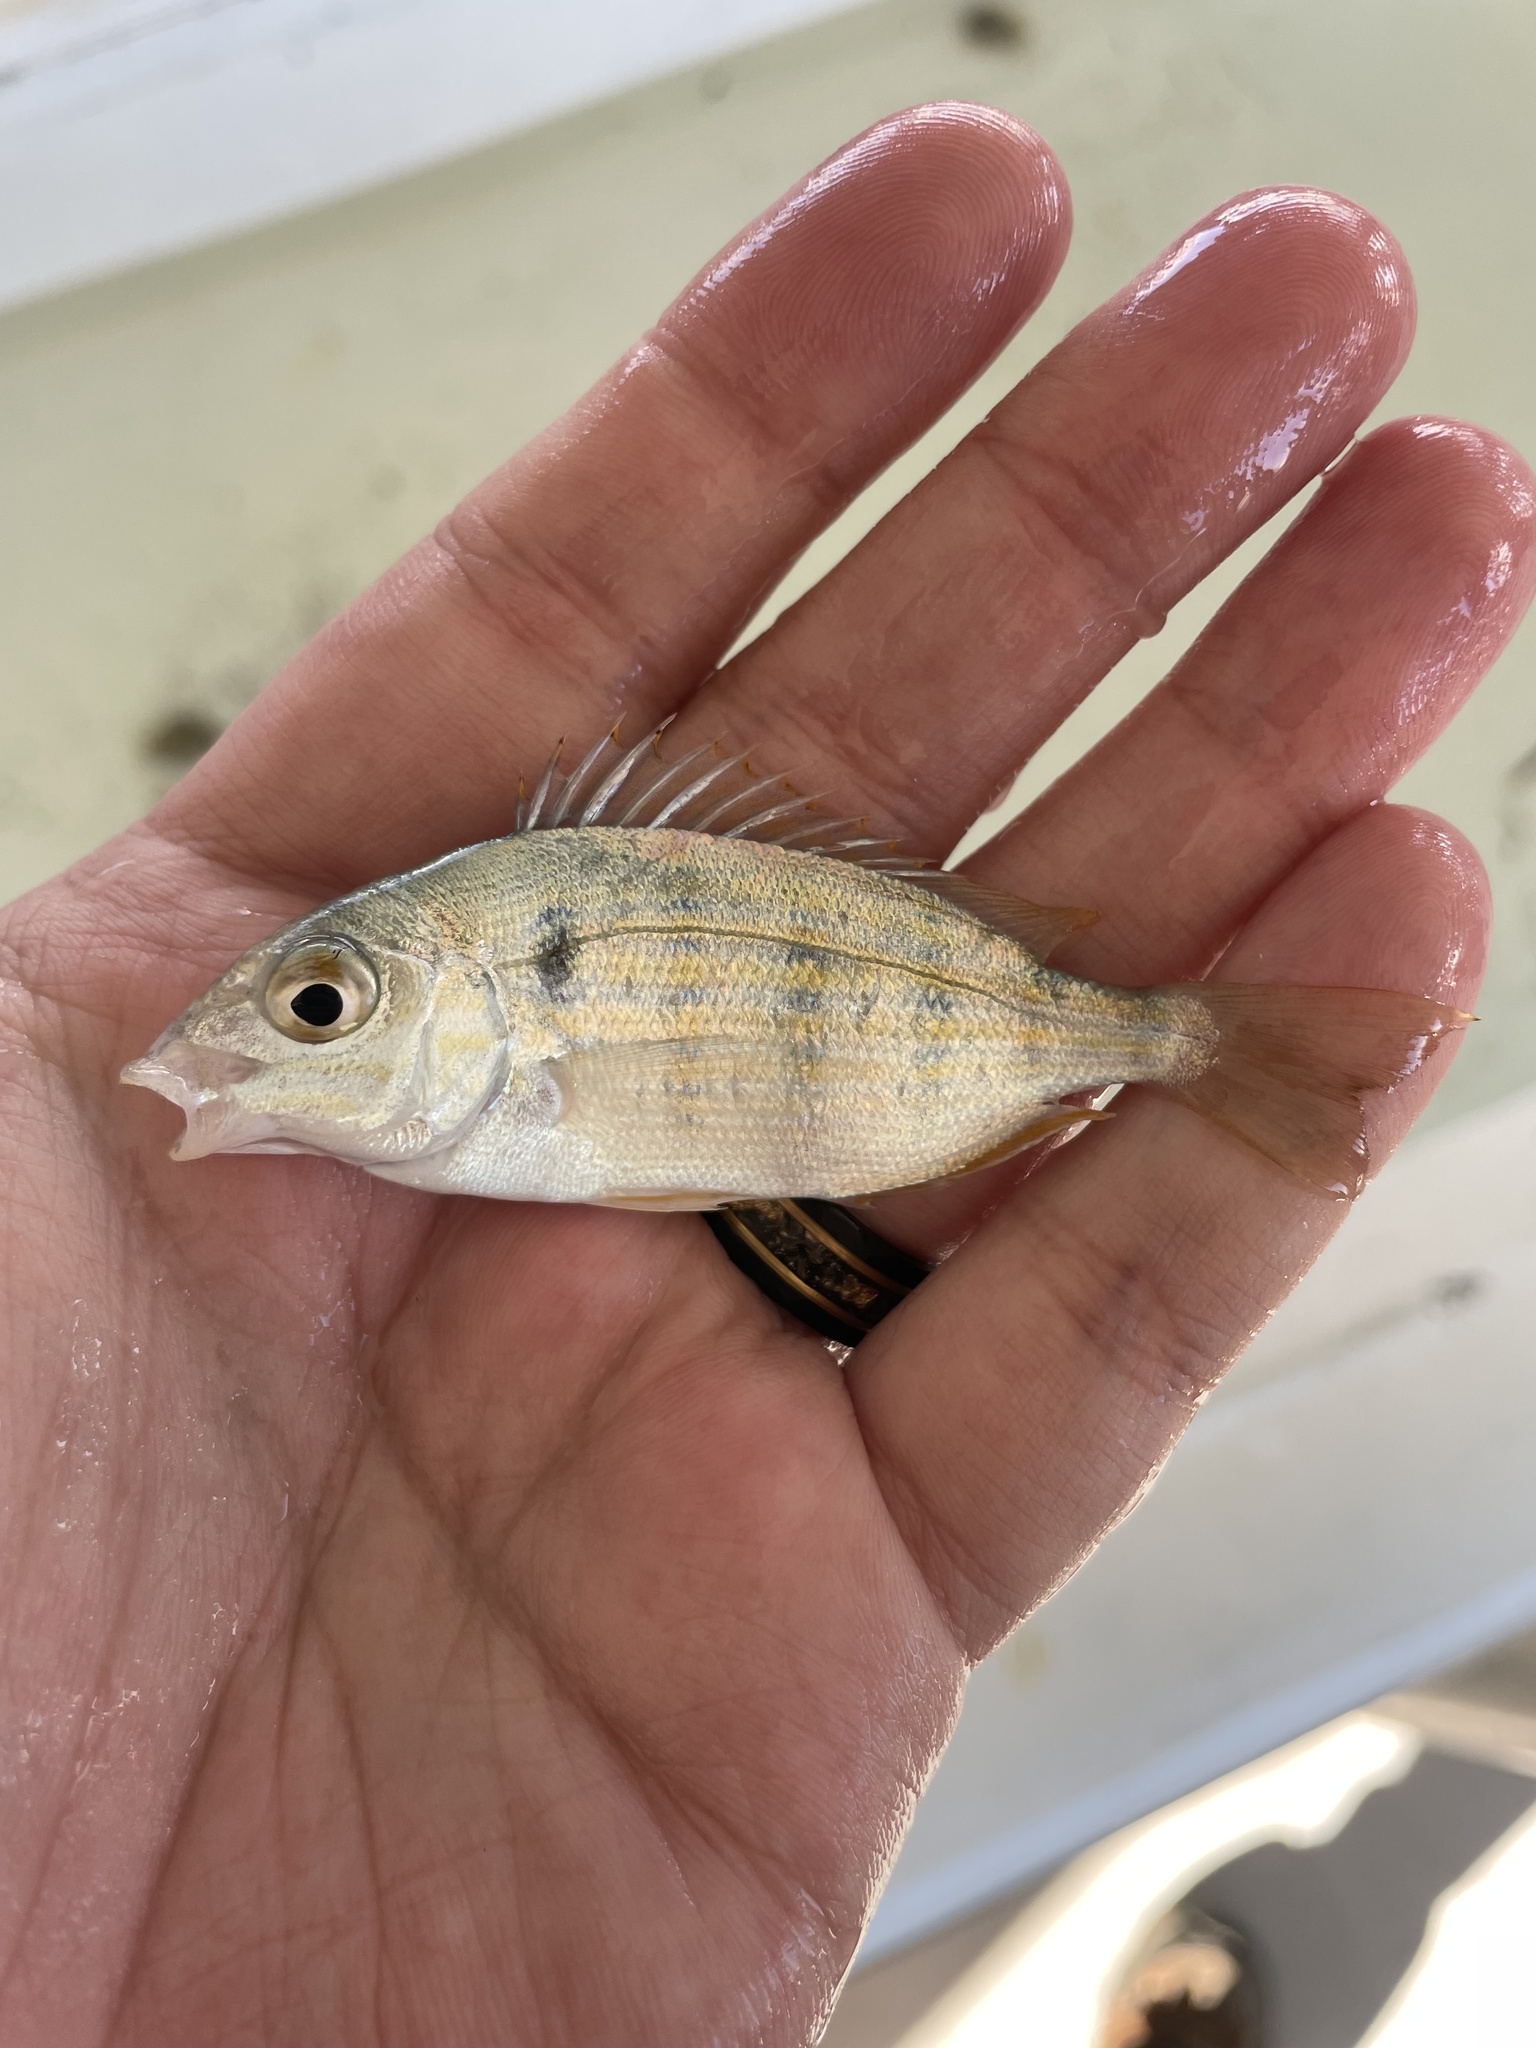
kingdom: Animalia
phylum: Chordata
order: Perciformes
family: Sparidae
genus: Lagodon
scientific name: Lagodon rhomboides
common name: Pinfish
